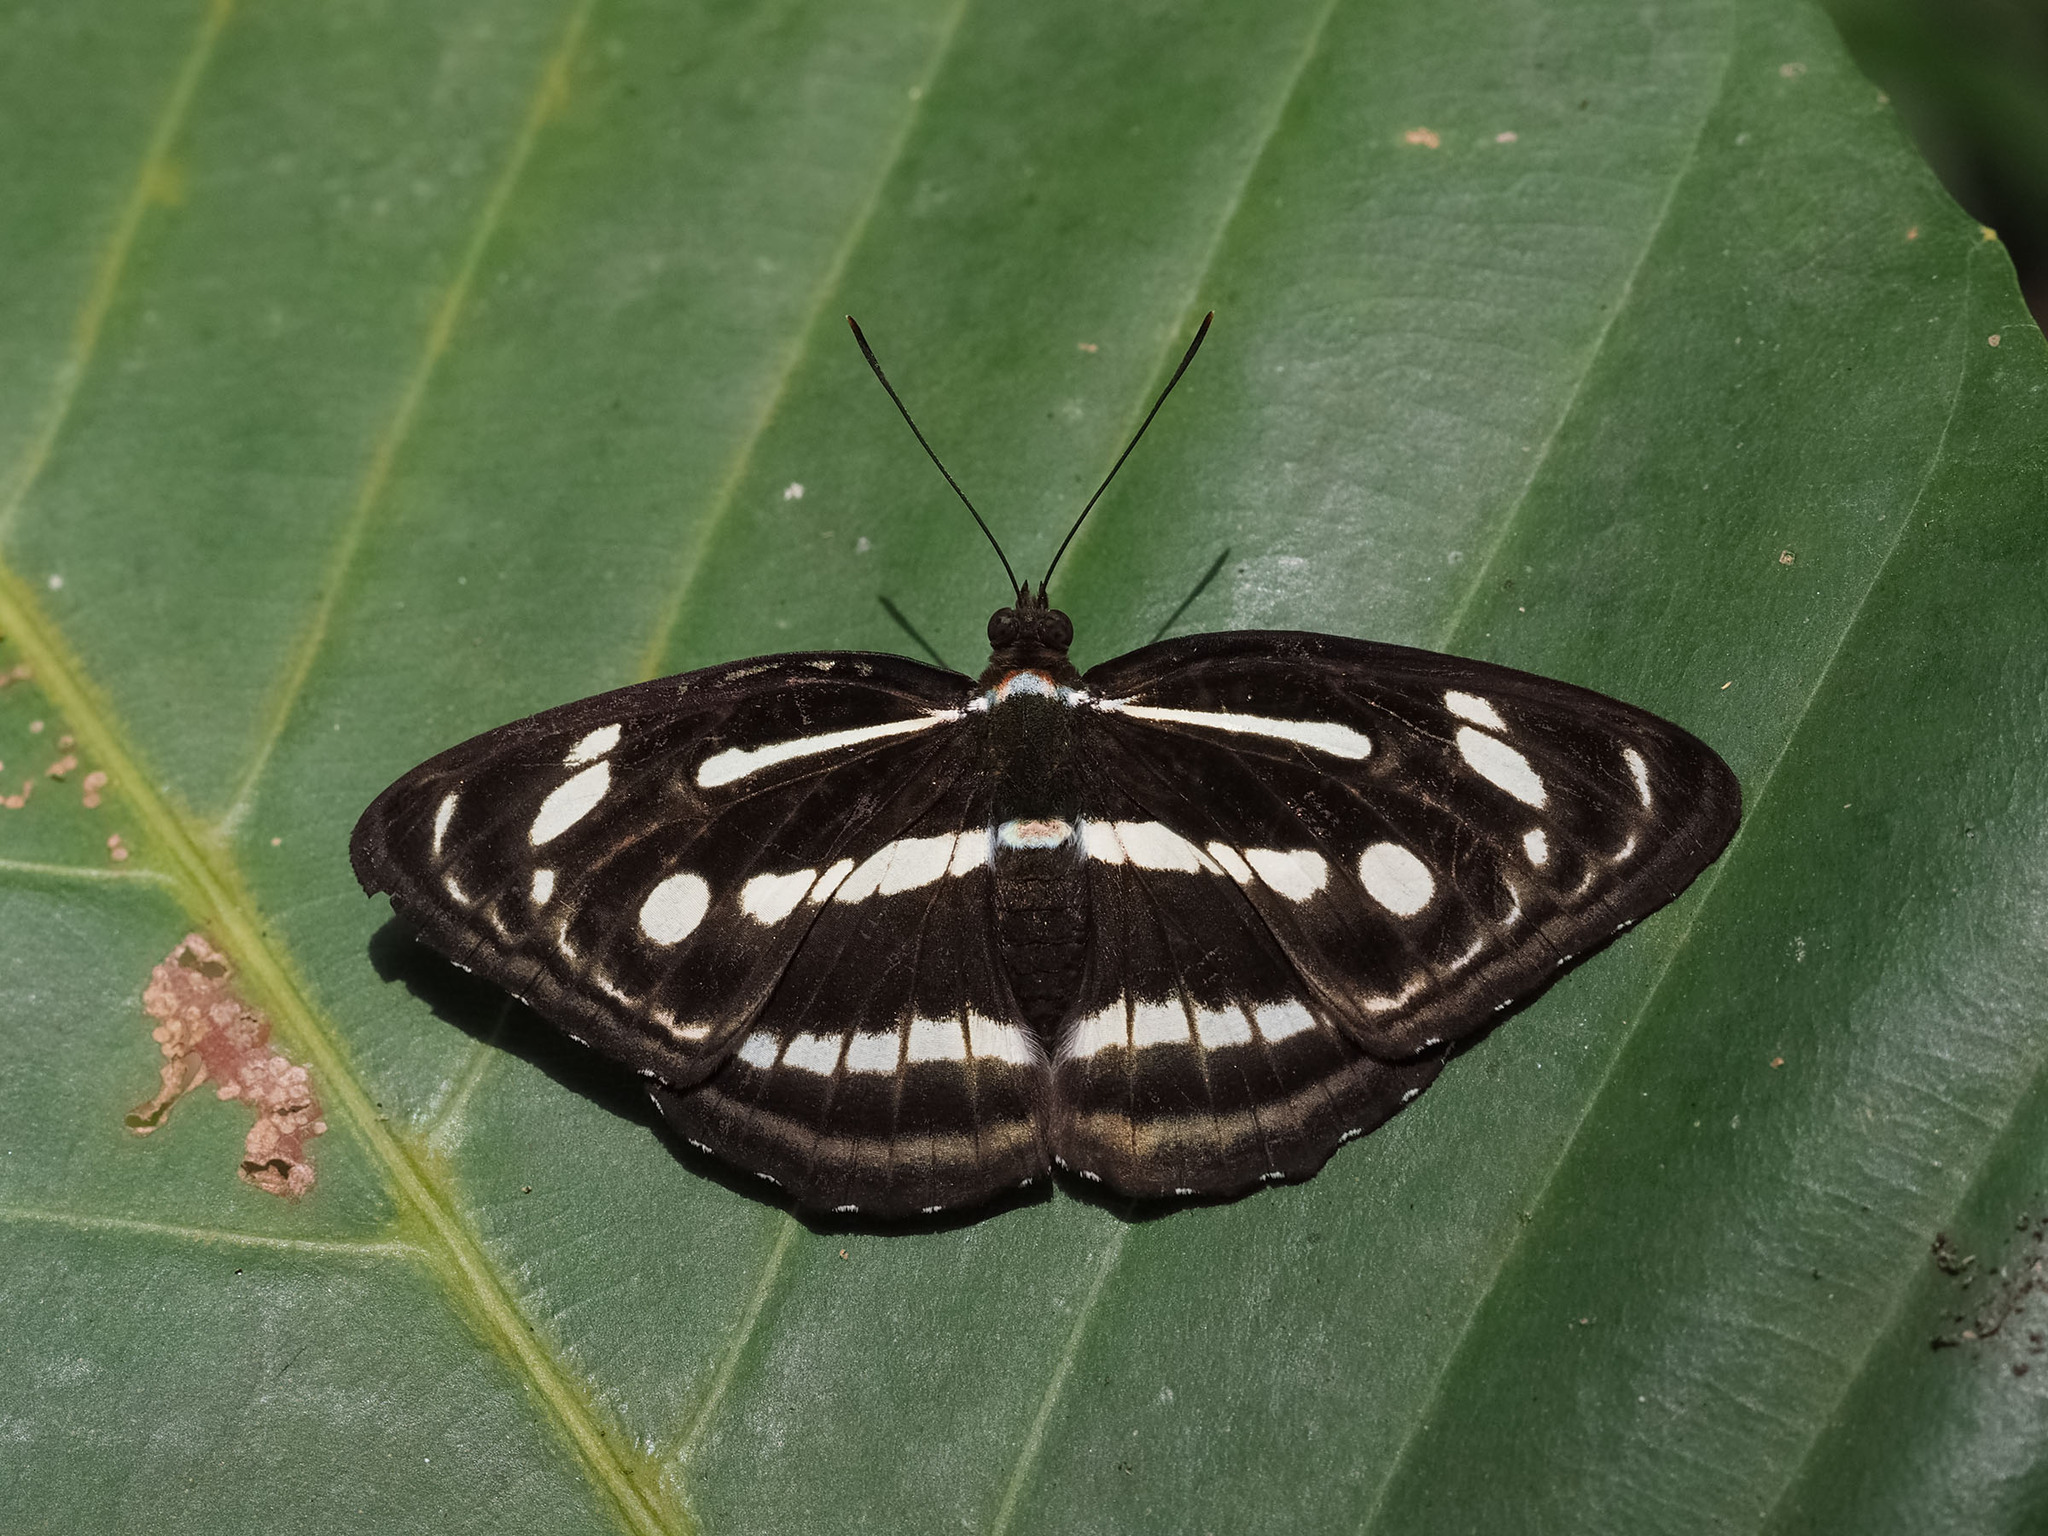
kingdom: Animalia
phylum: Arthropoda
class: Insecta
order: Lepidoptera
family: Nymphalidae
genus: Parathyma
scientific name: Parathyma pravara
